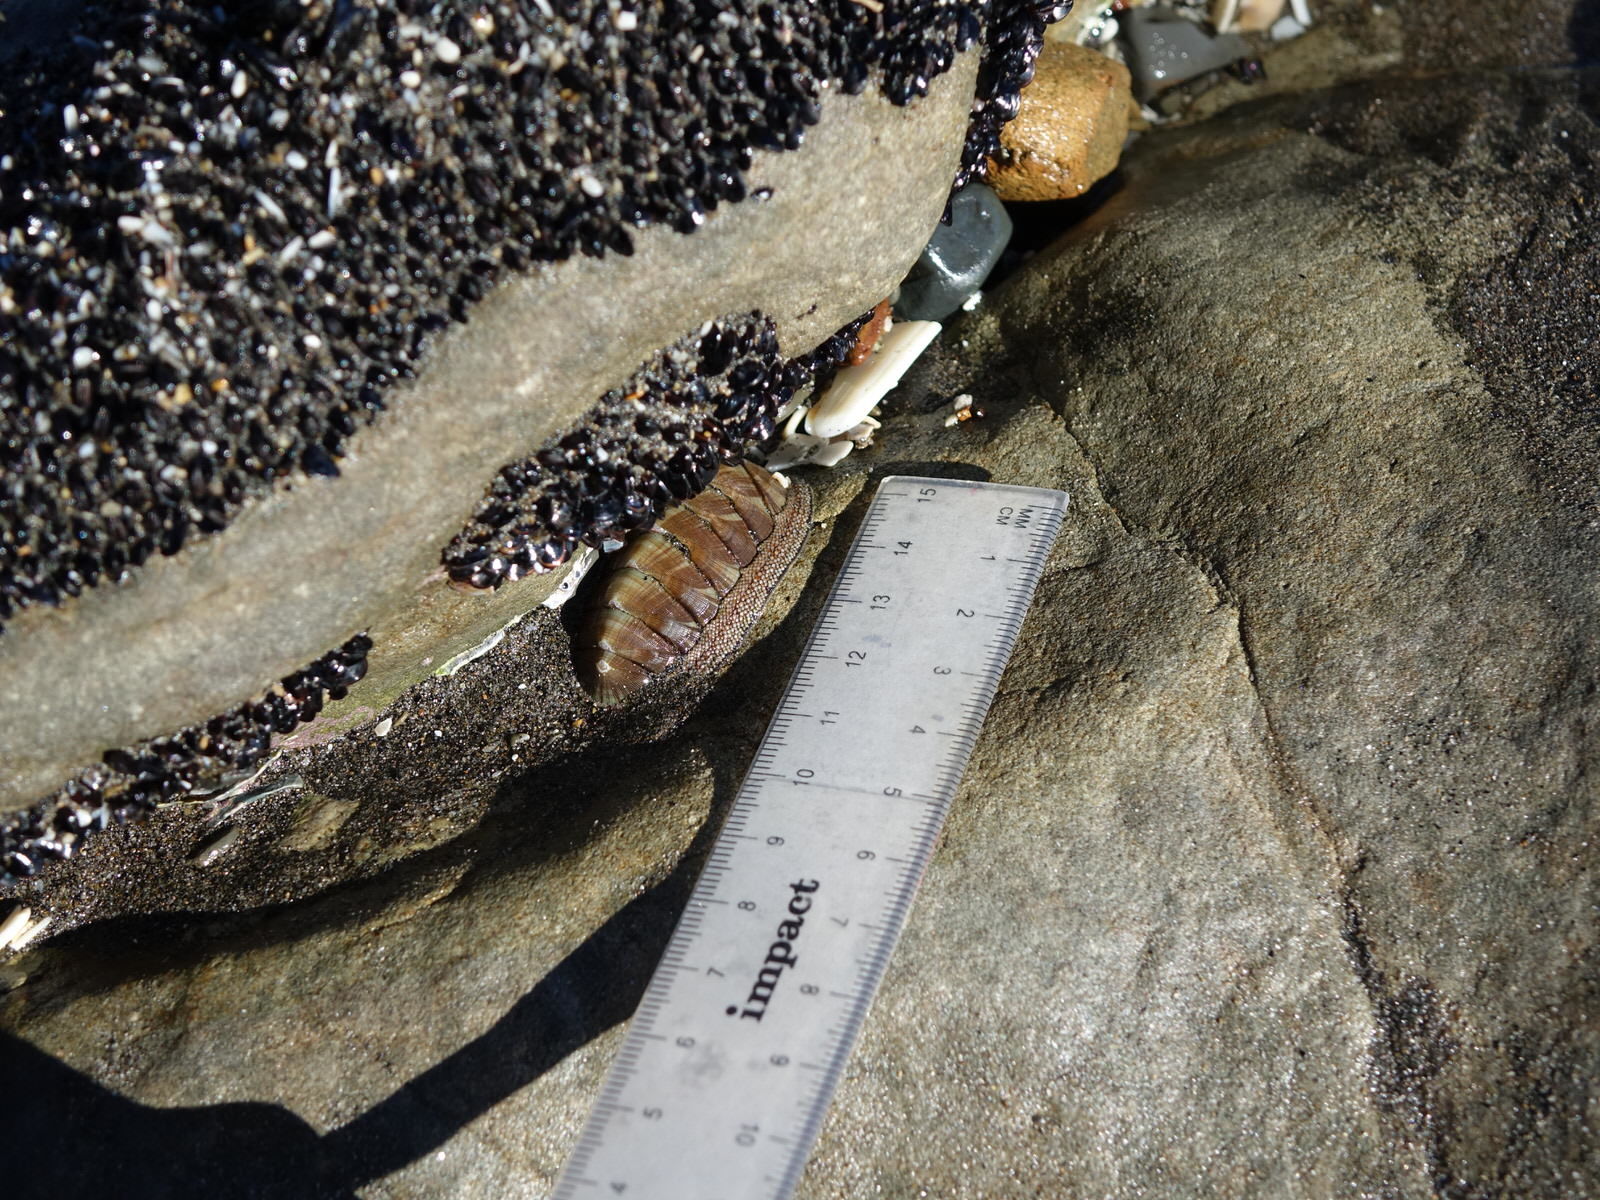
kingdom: Animalia
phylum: Mollusca
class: Polyplacophora
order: Chitonida
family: Chitonidae
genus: Chiton
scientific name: Chiton glaucus
